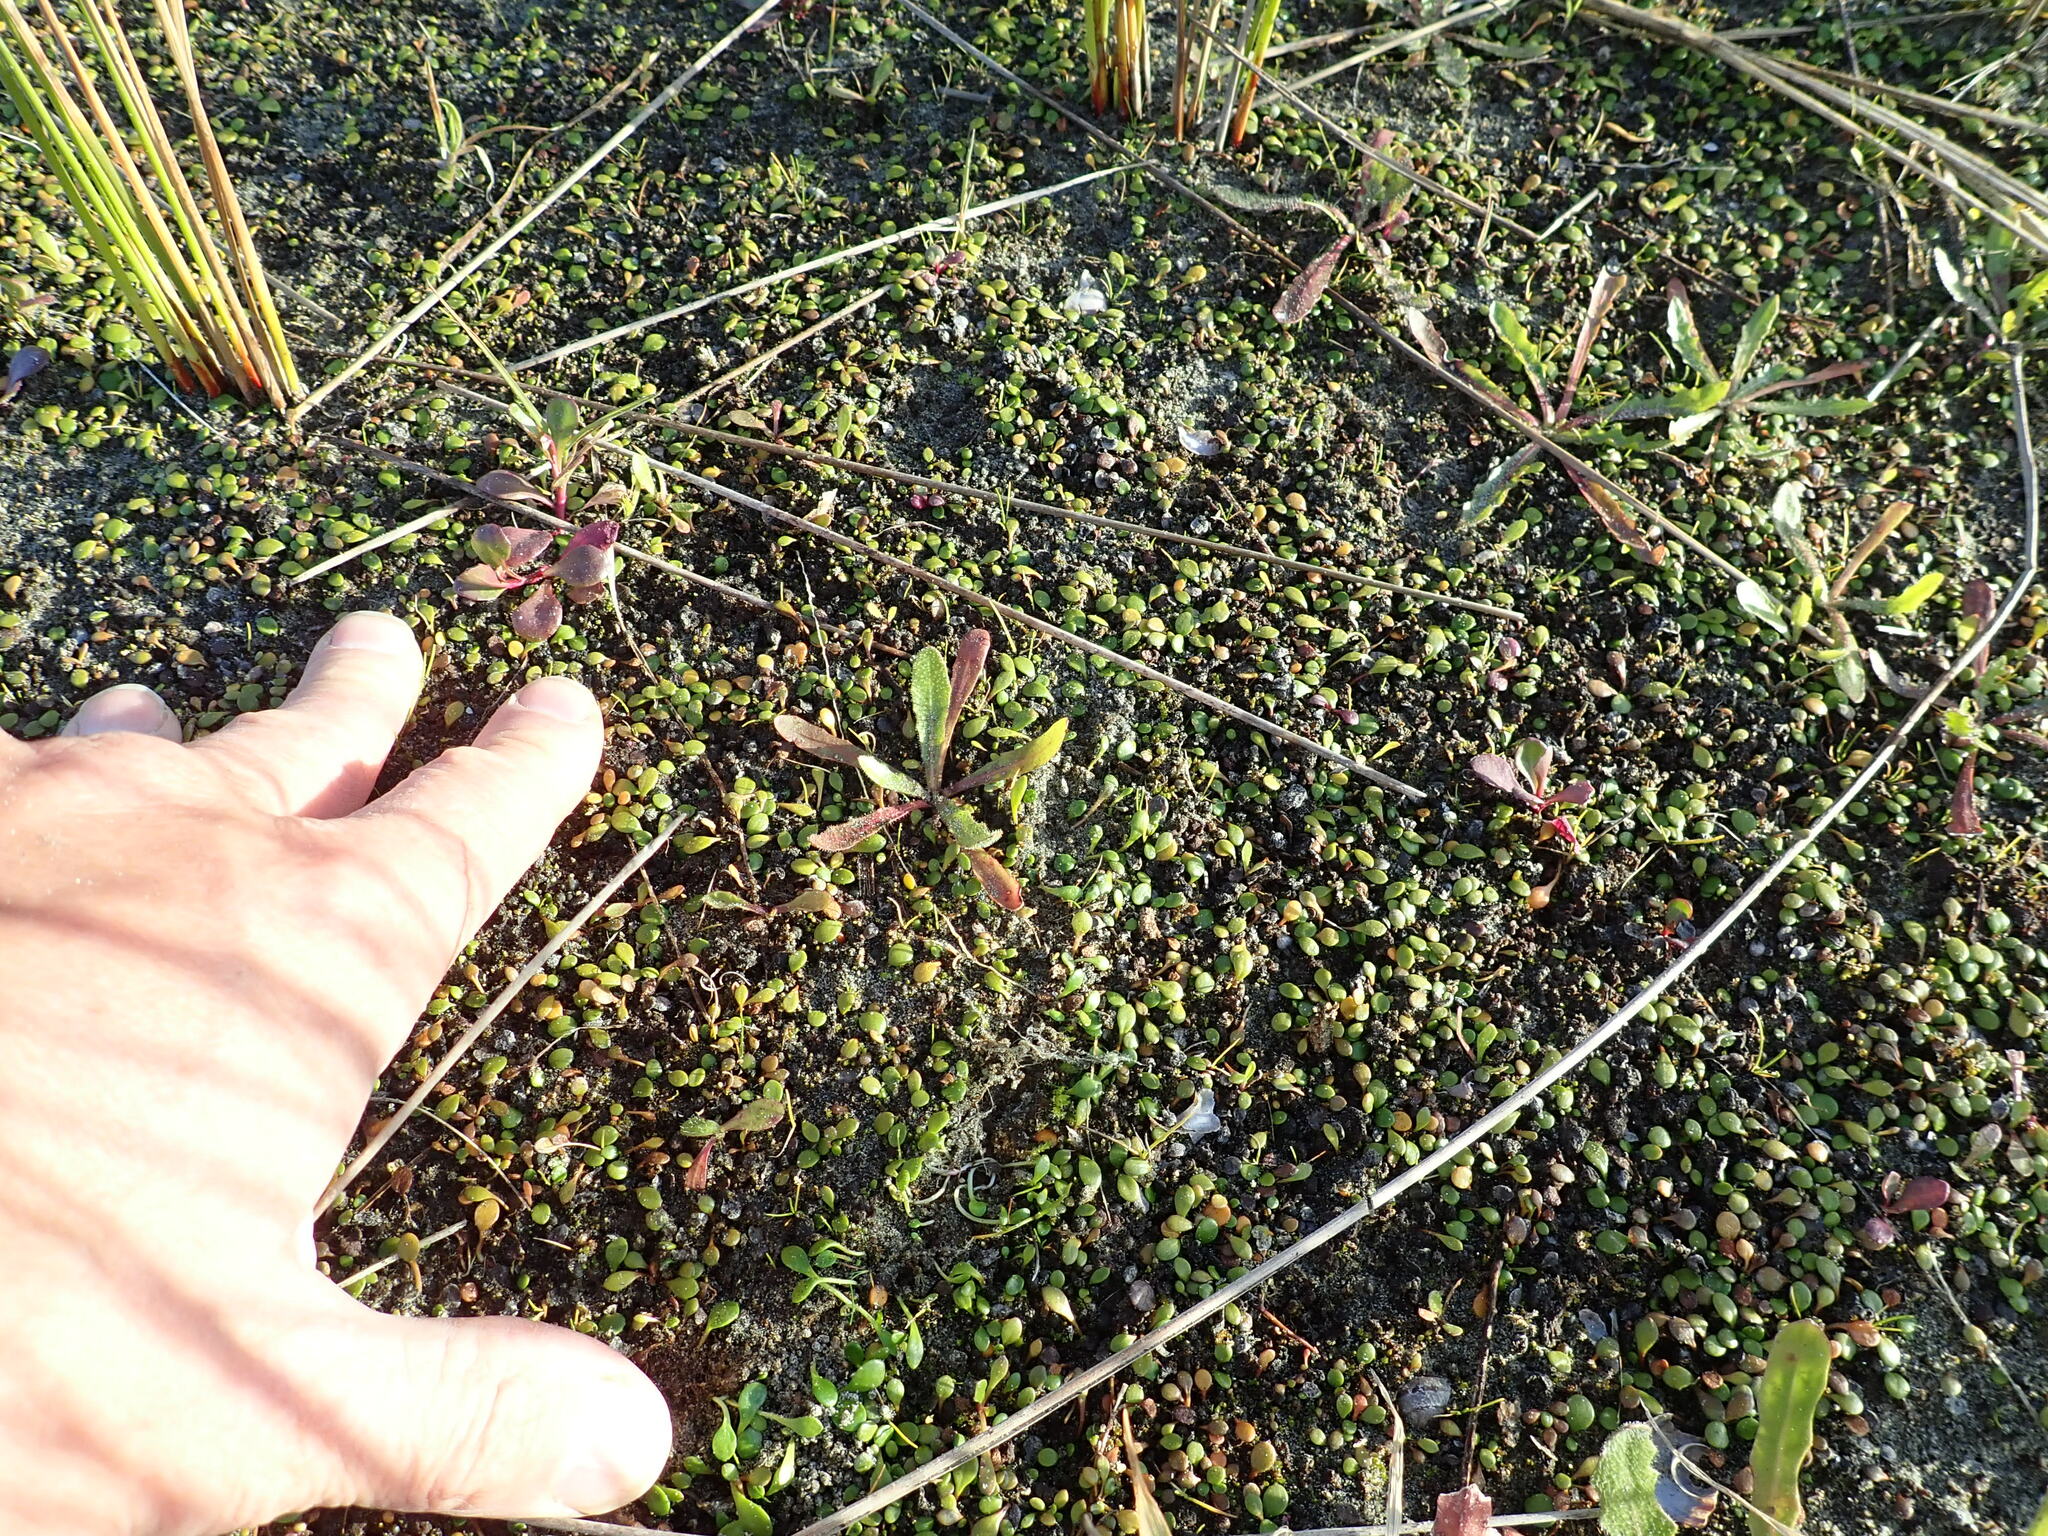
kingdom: Plantae
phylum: Tracheophyta
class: Magnoliopsida
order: Asterales
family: Campanulaceae
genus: Lobelia
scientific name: Lobelia anceps
